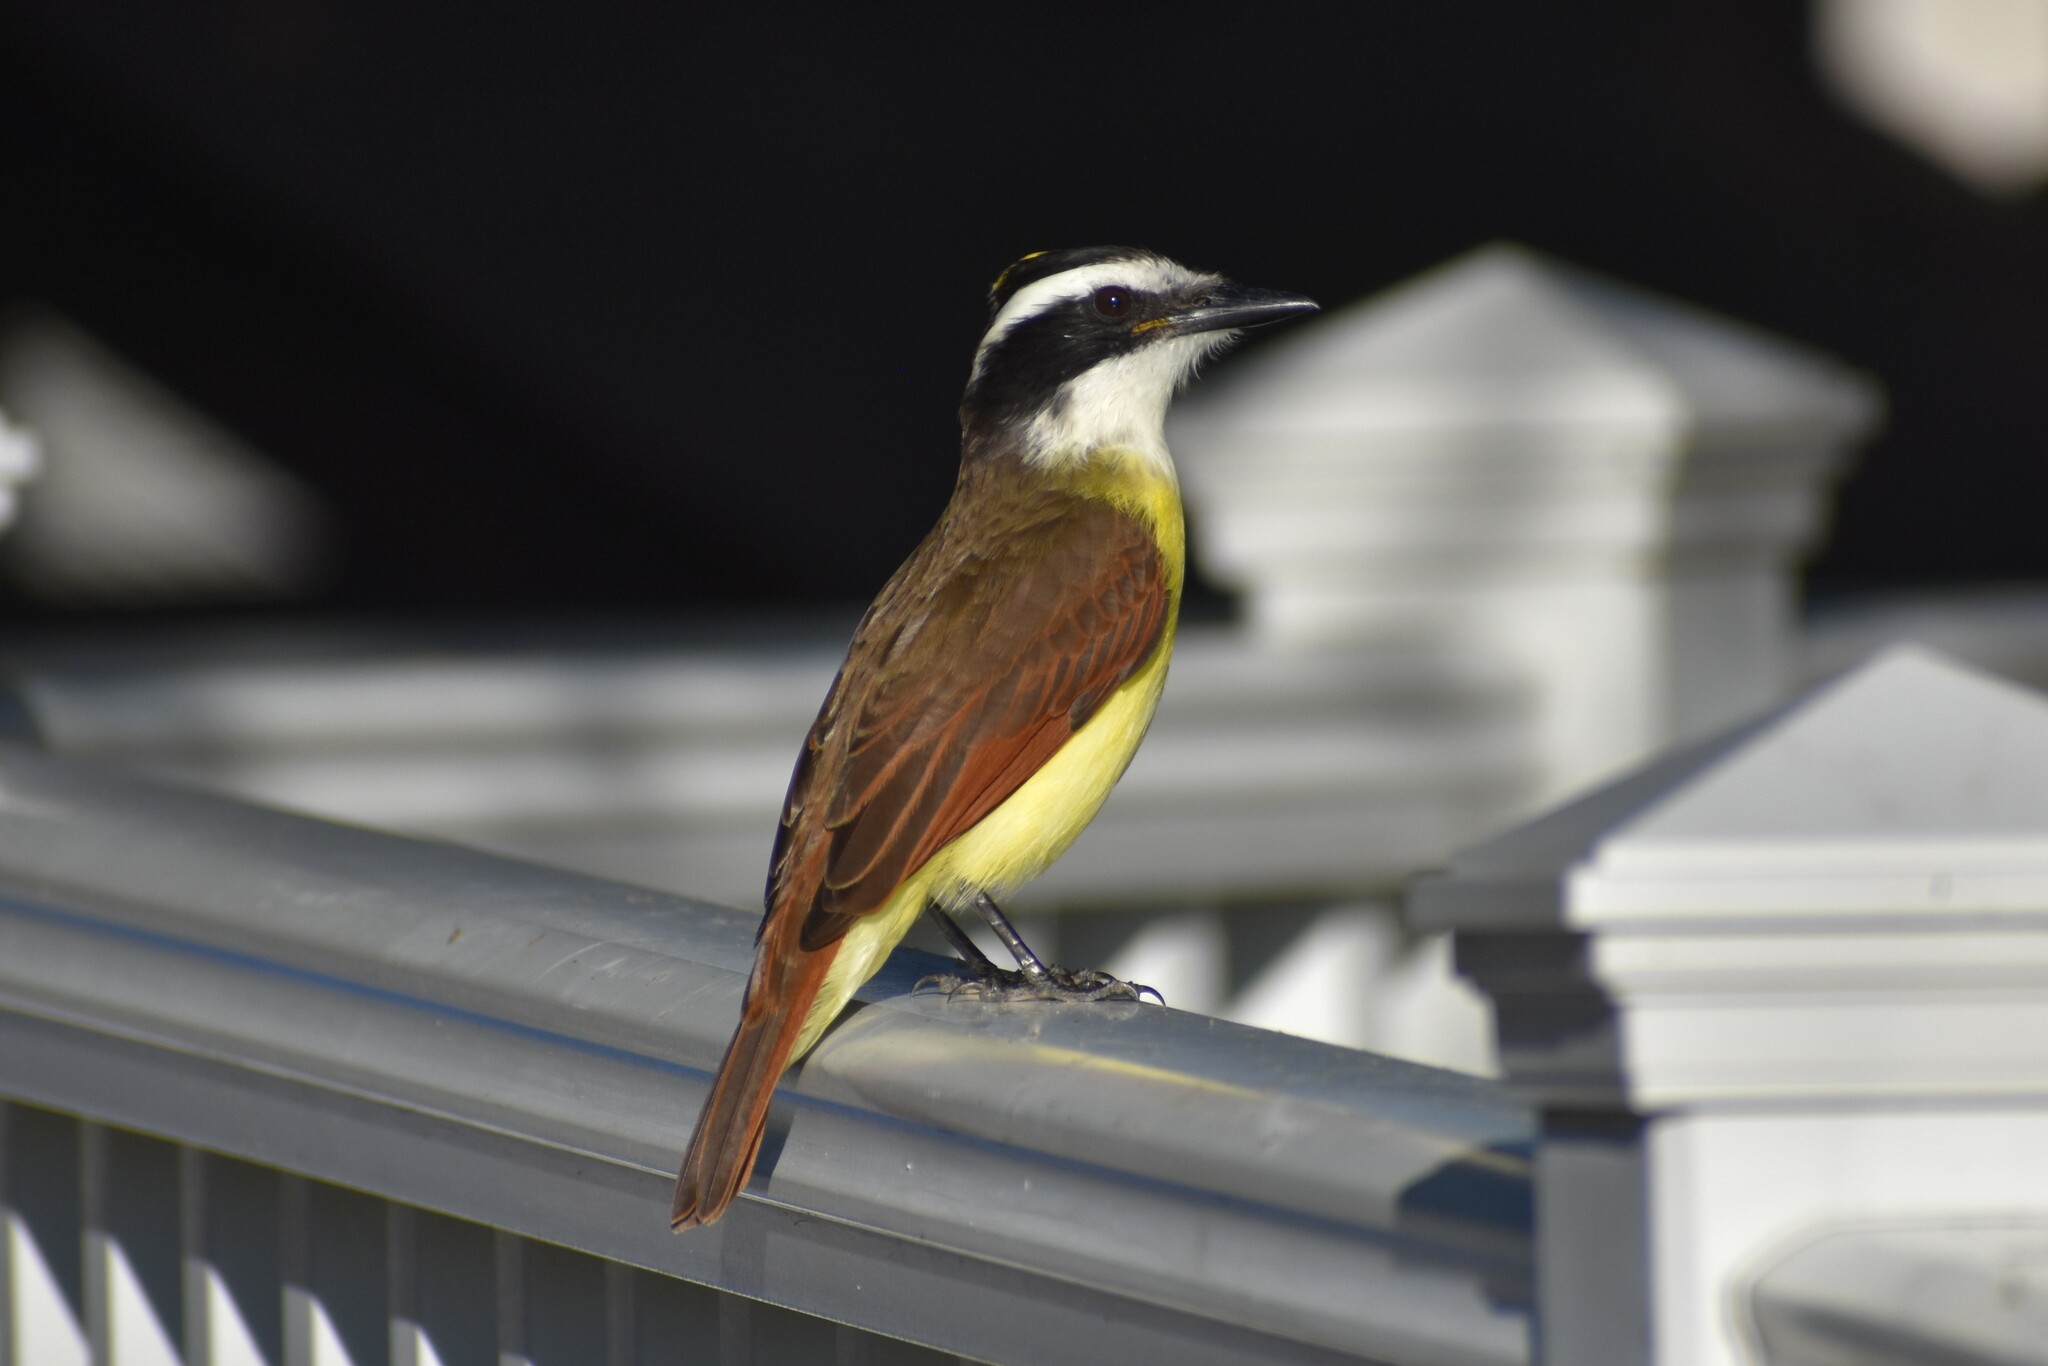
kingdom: Animalia
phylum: Chordata
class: Aves
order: Passeriformes
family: Tyrannidae
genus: Pitangus
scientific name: Pitangus sulphuratus
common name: Great kiskadee
